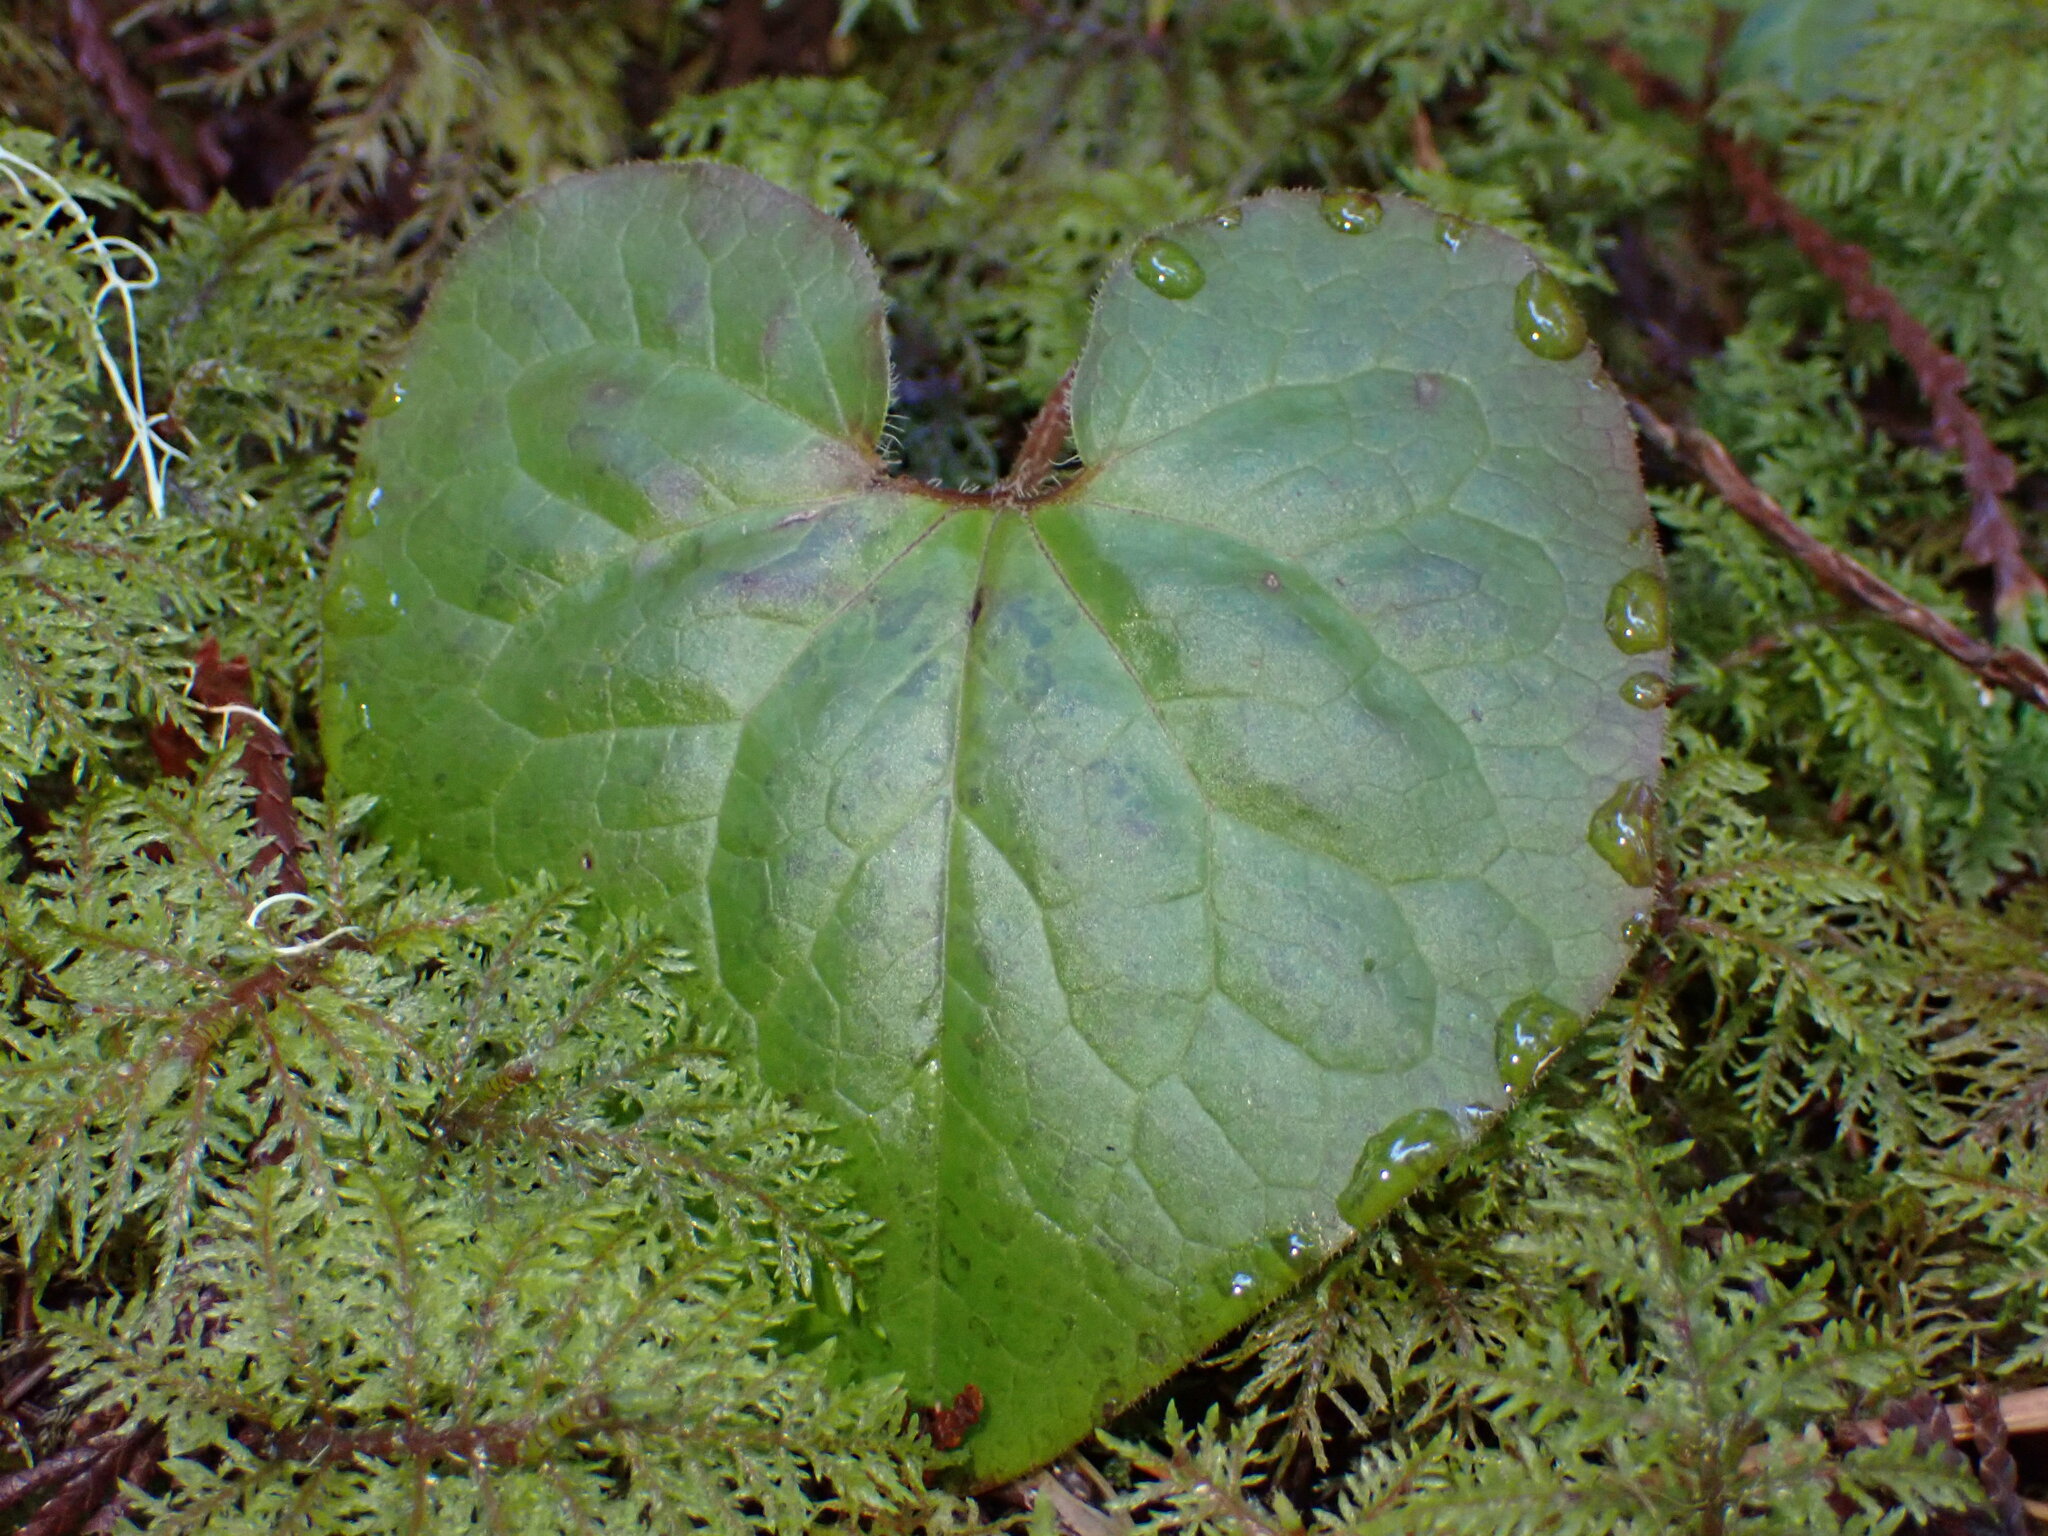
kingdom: Plantae
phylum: Tracheophyta
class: Magnoliopsida
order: Piperales
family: Aristolochiaceae
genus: Asarum
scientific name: Asarum caudatum
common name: Wild ginger
